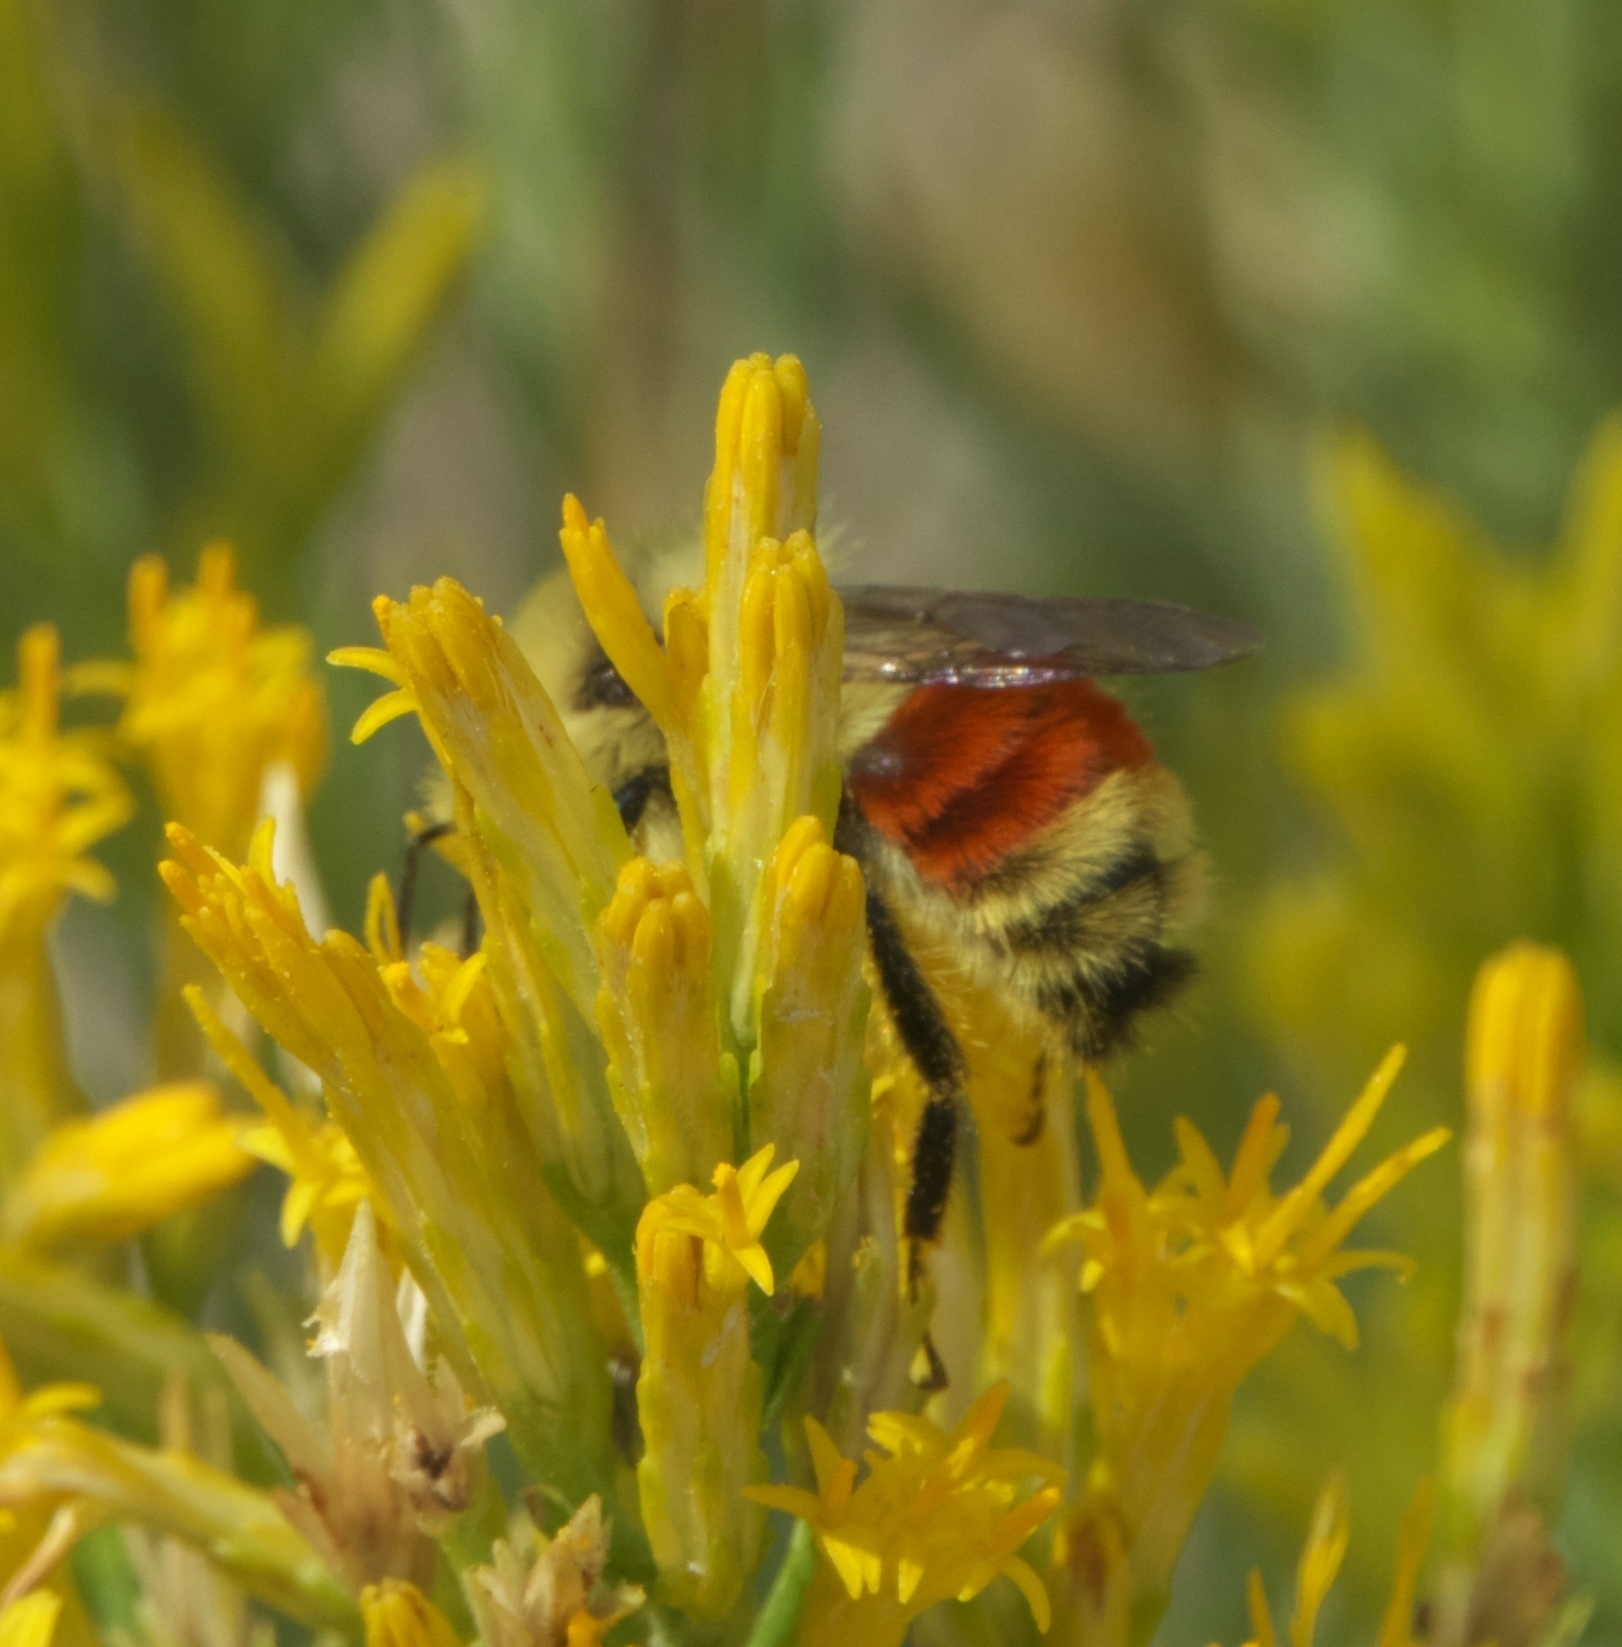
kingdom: Animalia
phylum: Arthropoda
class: Insecta
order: Hymenoptera
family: Apidae
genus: Bombus
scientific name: Bombus huntii
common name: Hunt bumble bee
